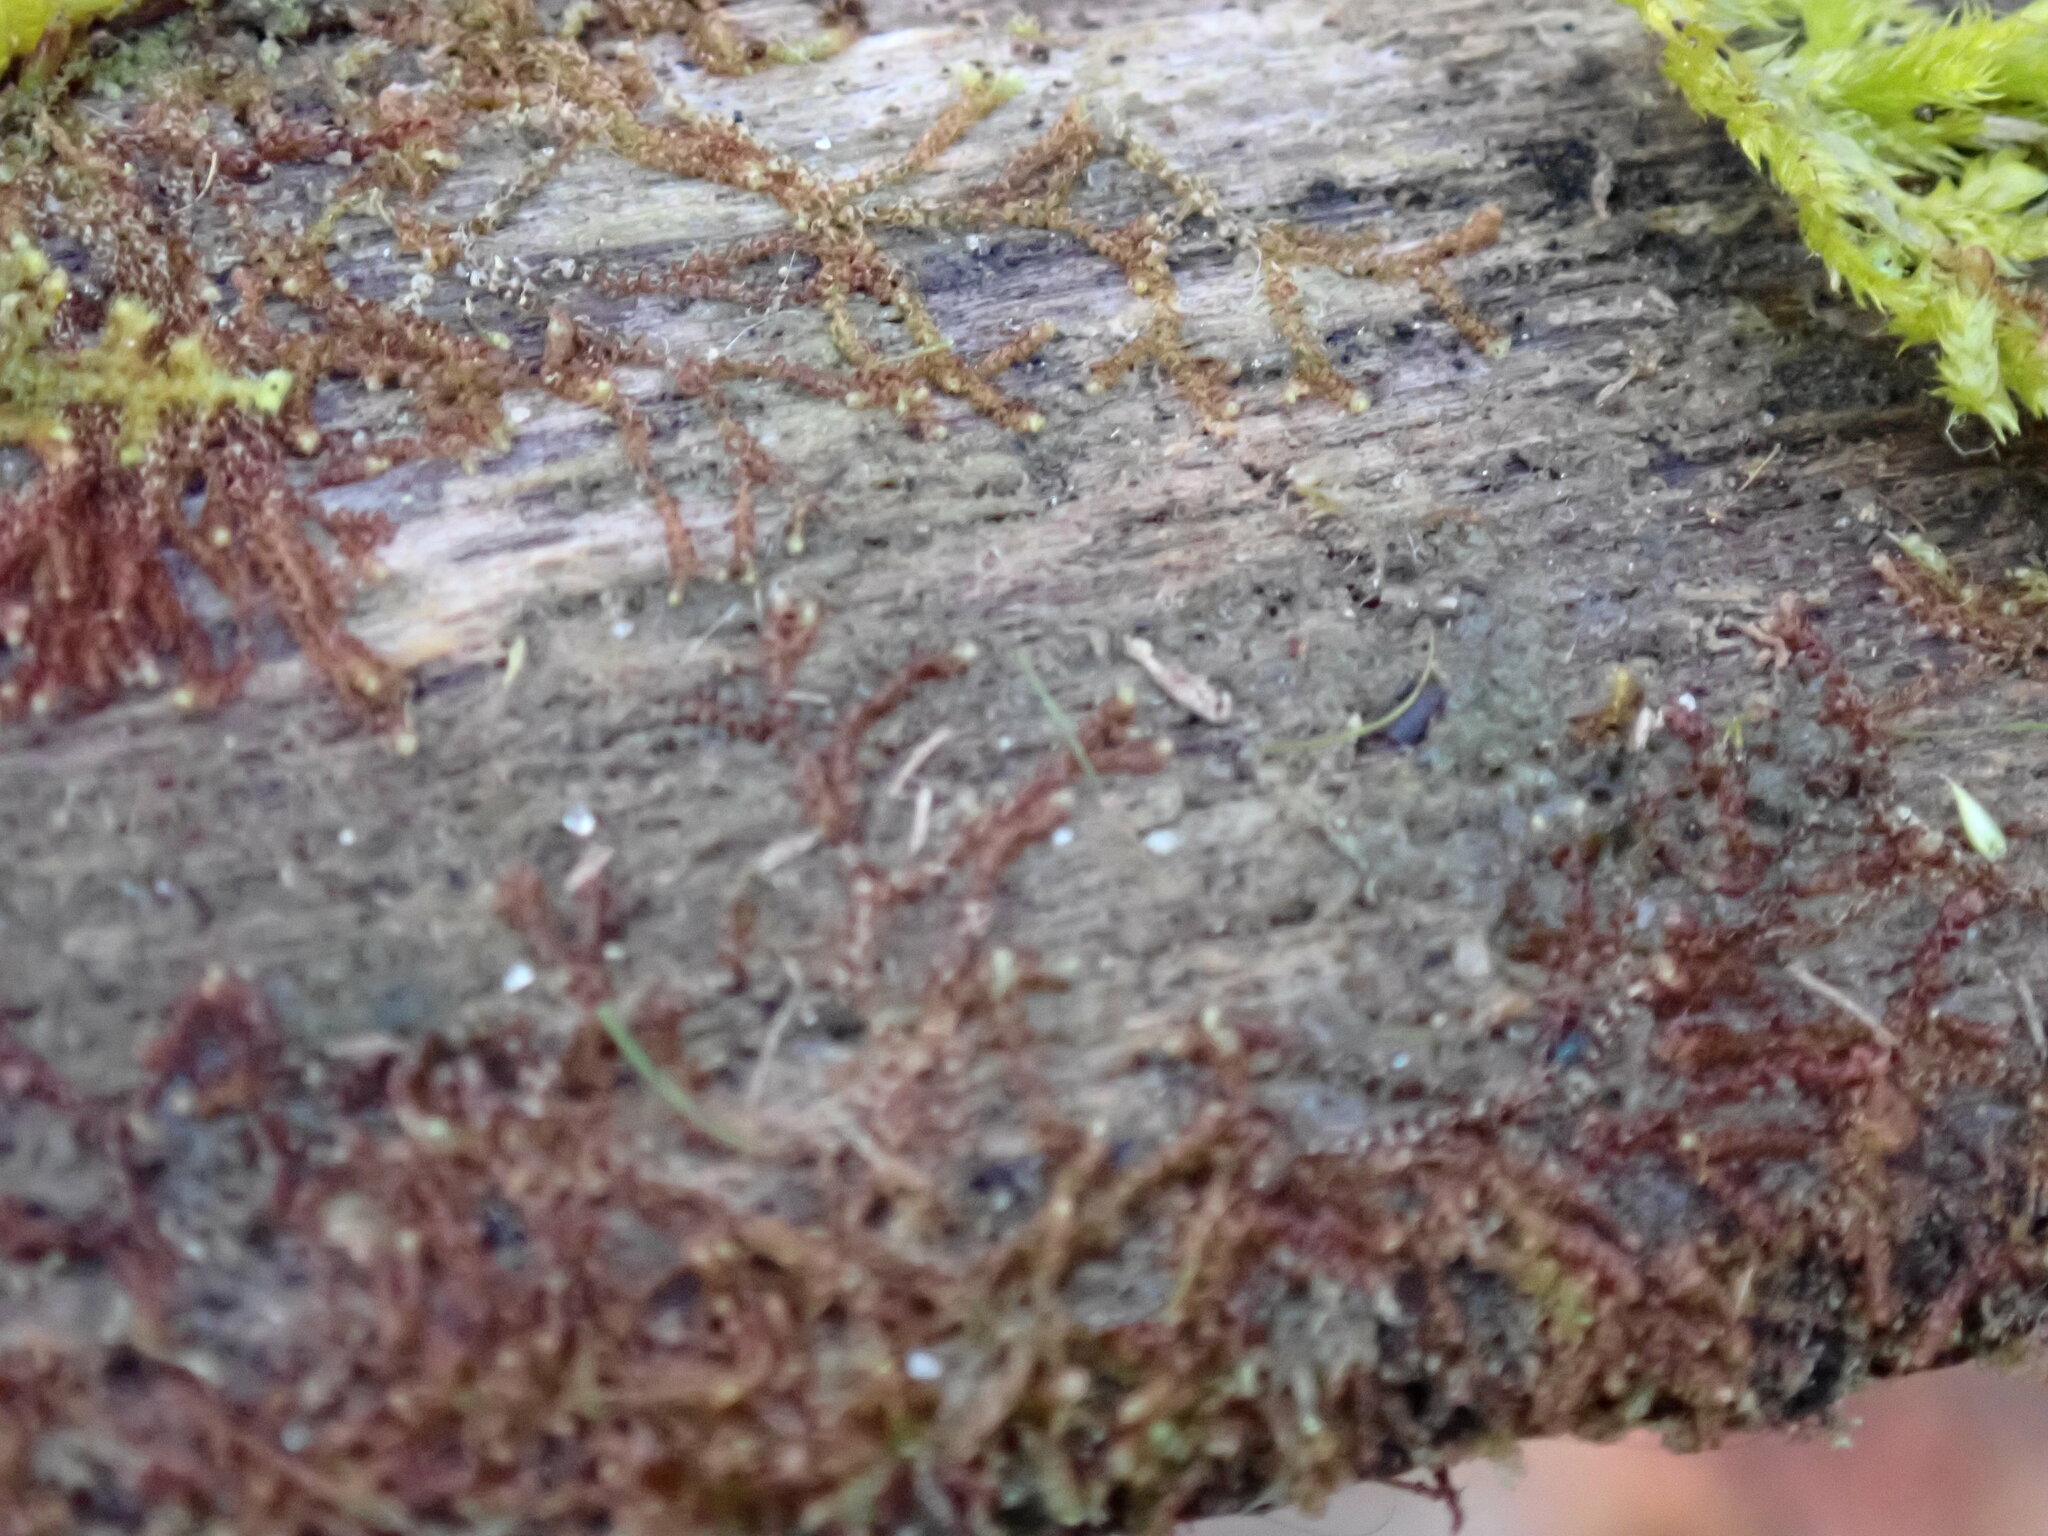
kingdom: Plantae
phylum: Marchantiophyta
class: Jungermanniopsida
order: Jungermanniales
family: Cephaloziaceae
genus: Nowellia
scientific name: Nowellia curvifolia
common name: Wood rustwort
